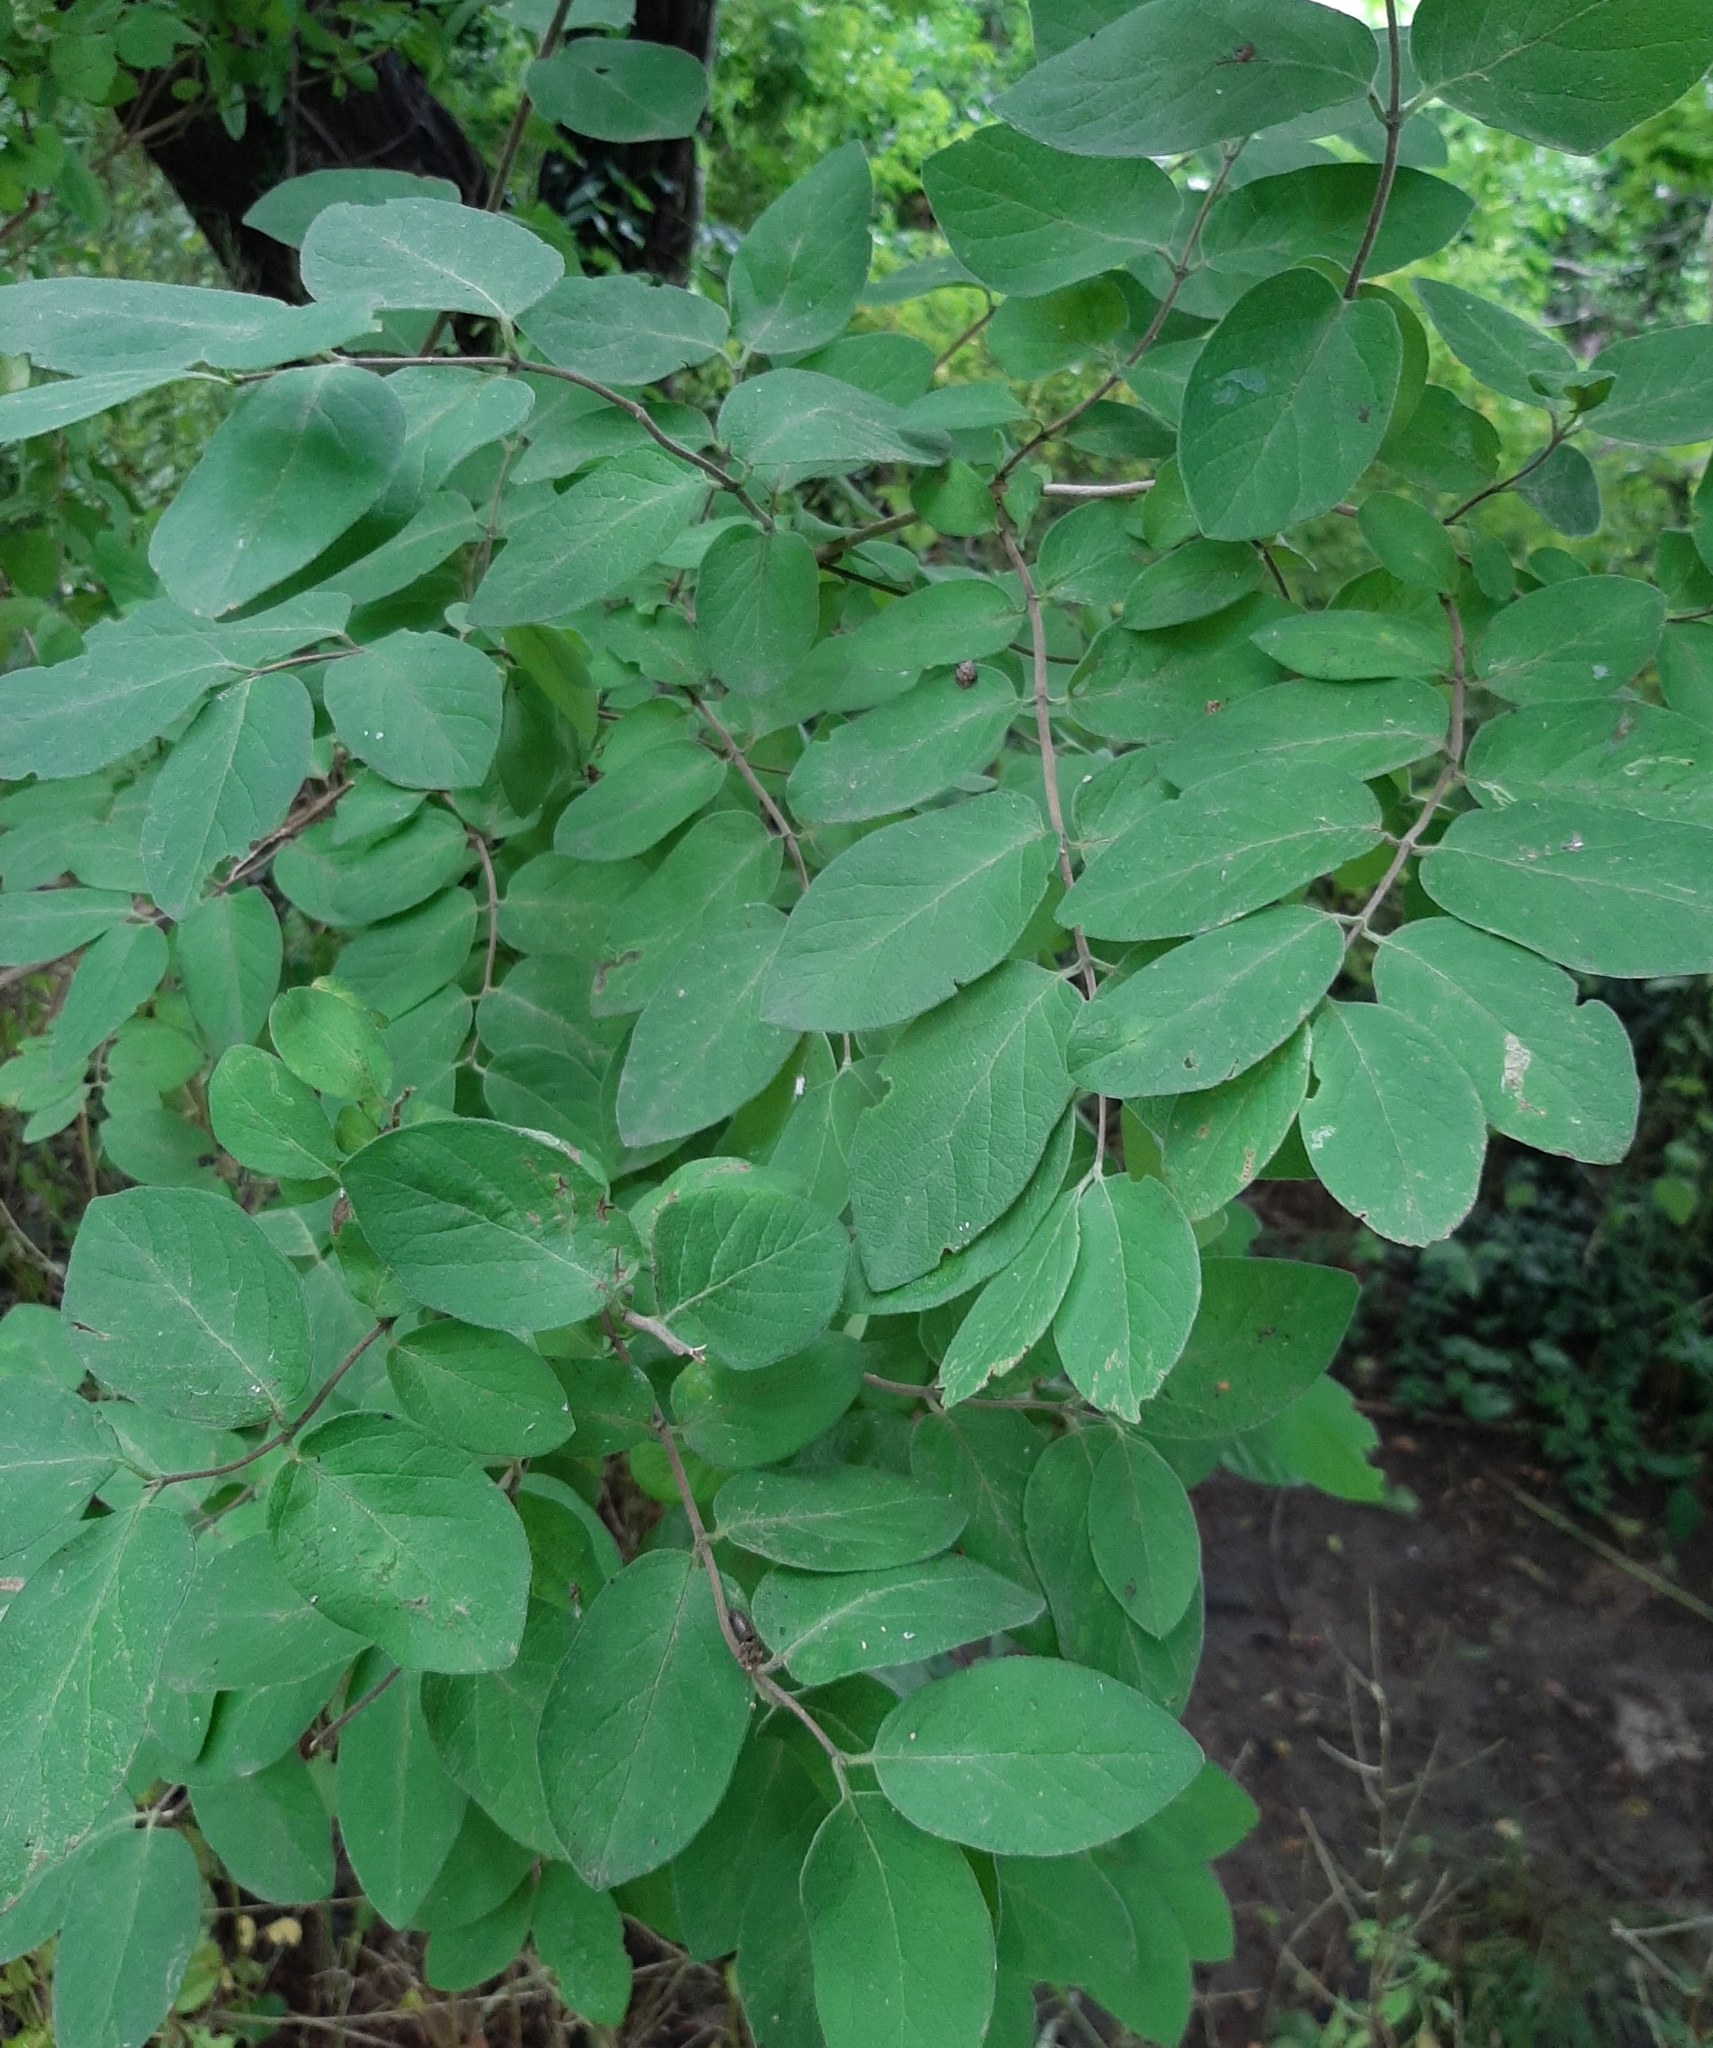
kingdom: Animalia
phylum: Arthropoda
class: Insecta
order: Diptera
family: Agromyzidae
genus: Aulagromyza
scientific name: Aulagromyza luteoscutellata
